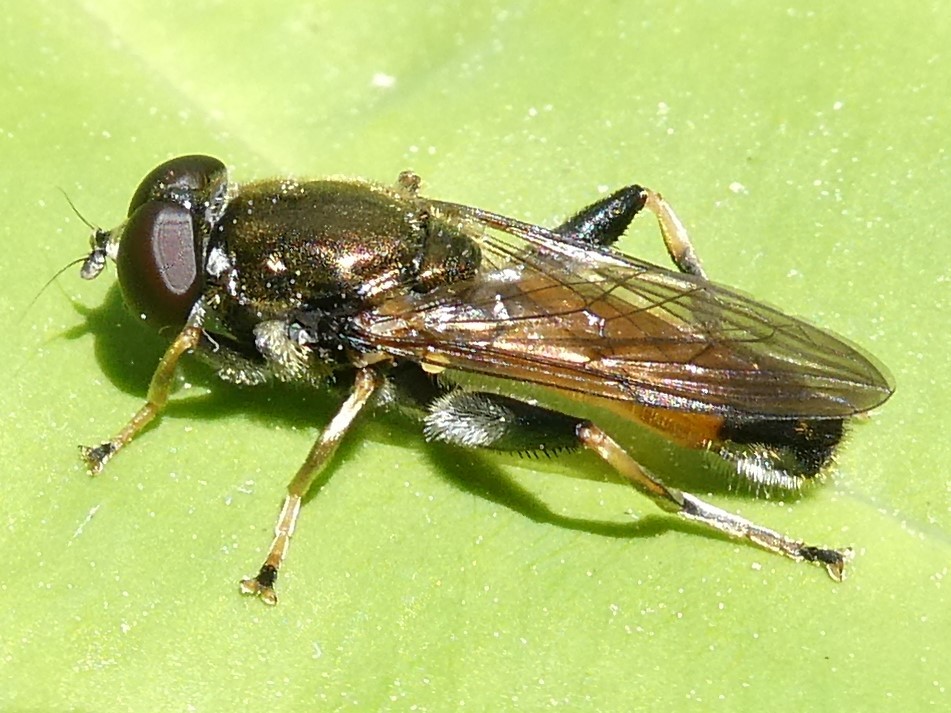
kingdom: Animalia
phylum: Arthropoda
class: Insecta
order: Diptera
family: Syrphidae
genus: Xylota
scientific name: Xylota segnis
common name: Brown-toed forest fly
